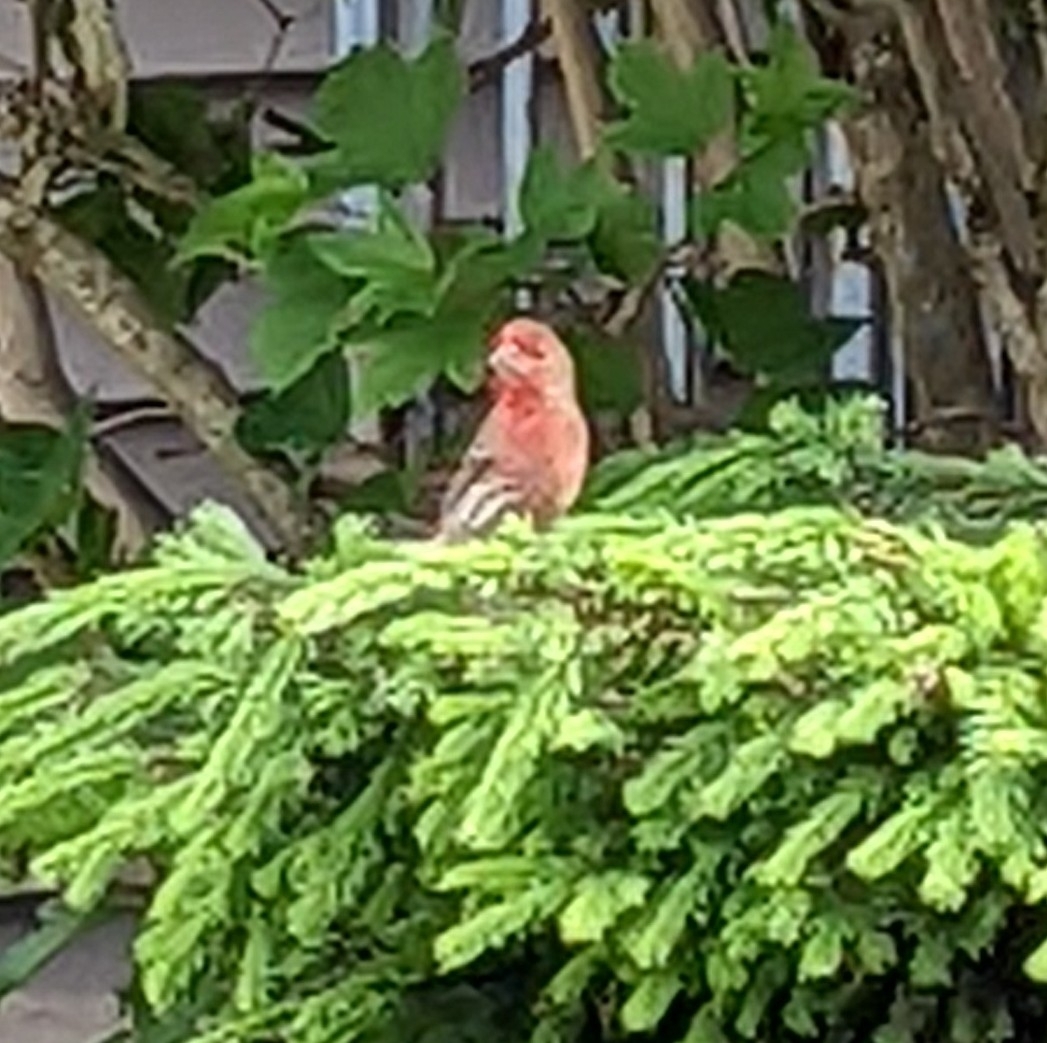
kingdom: Animalia
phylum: Chordata
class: Aves
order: Passeriformes
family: Fringillidae
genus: Haemorhous
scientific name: Haemorhous mexicanus
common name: House finch
